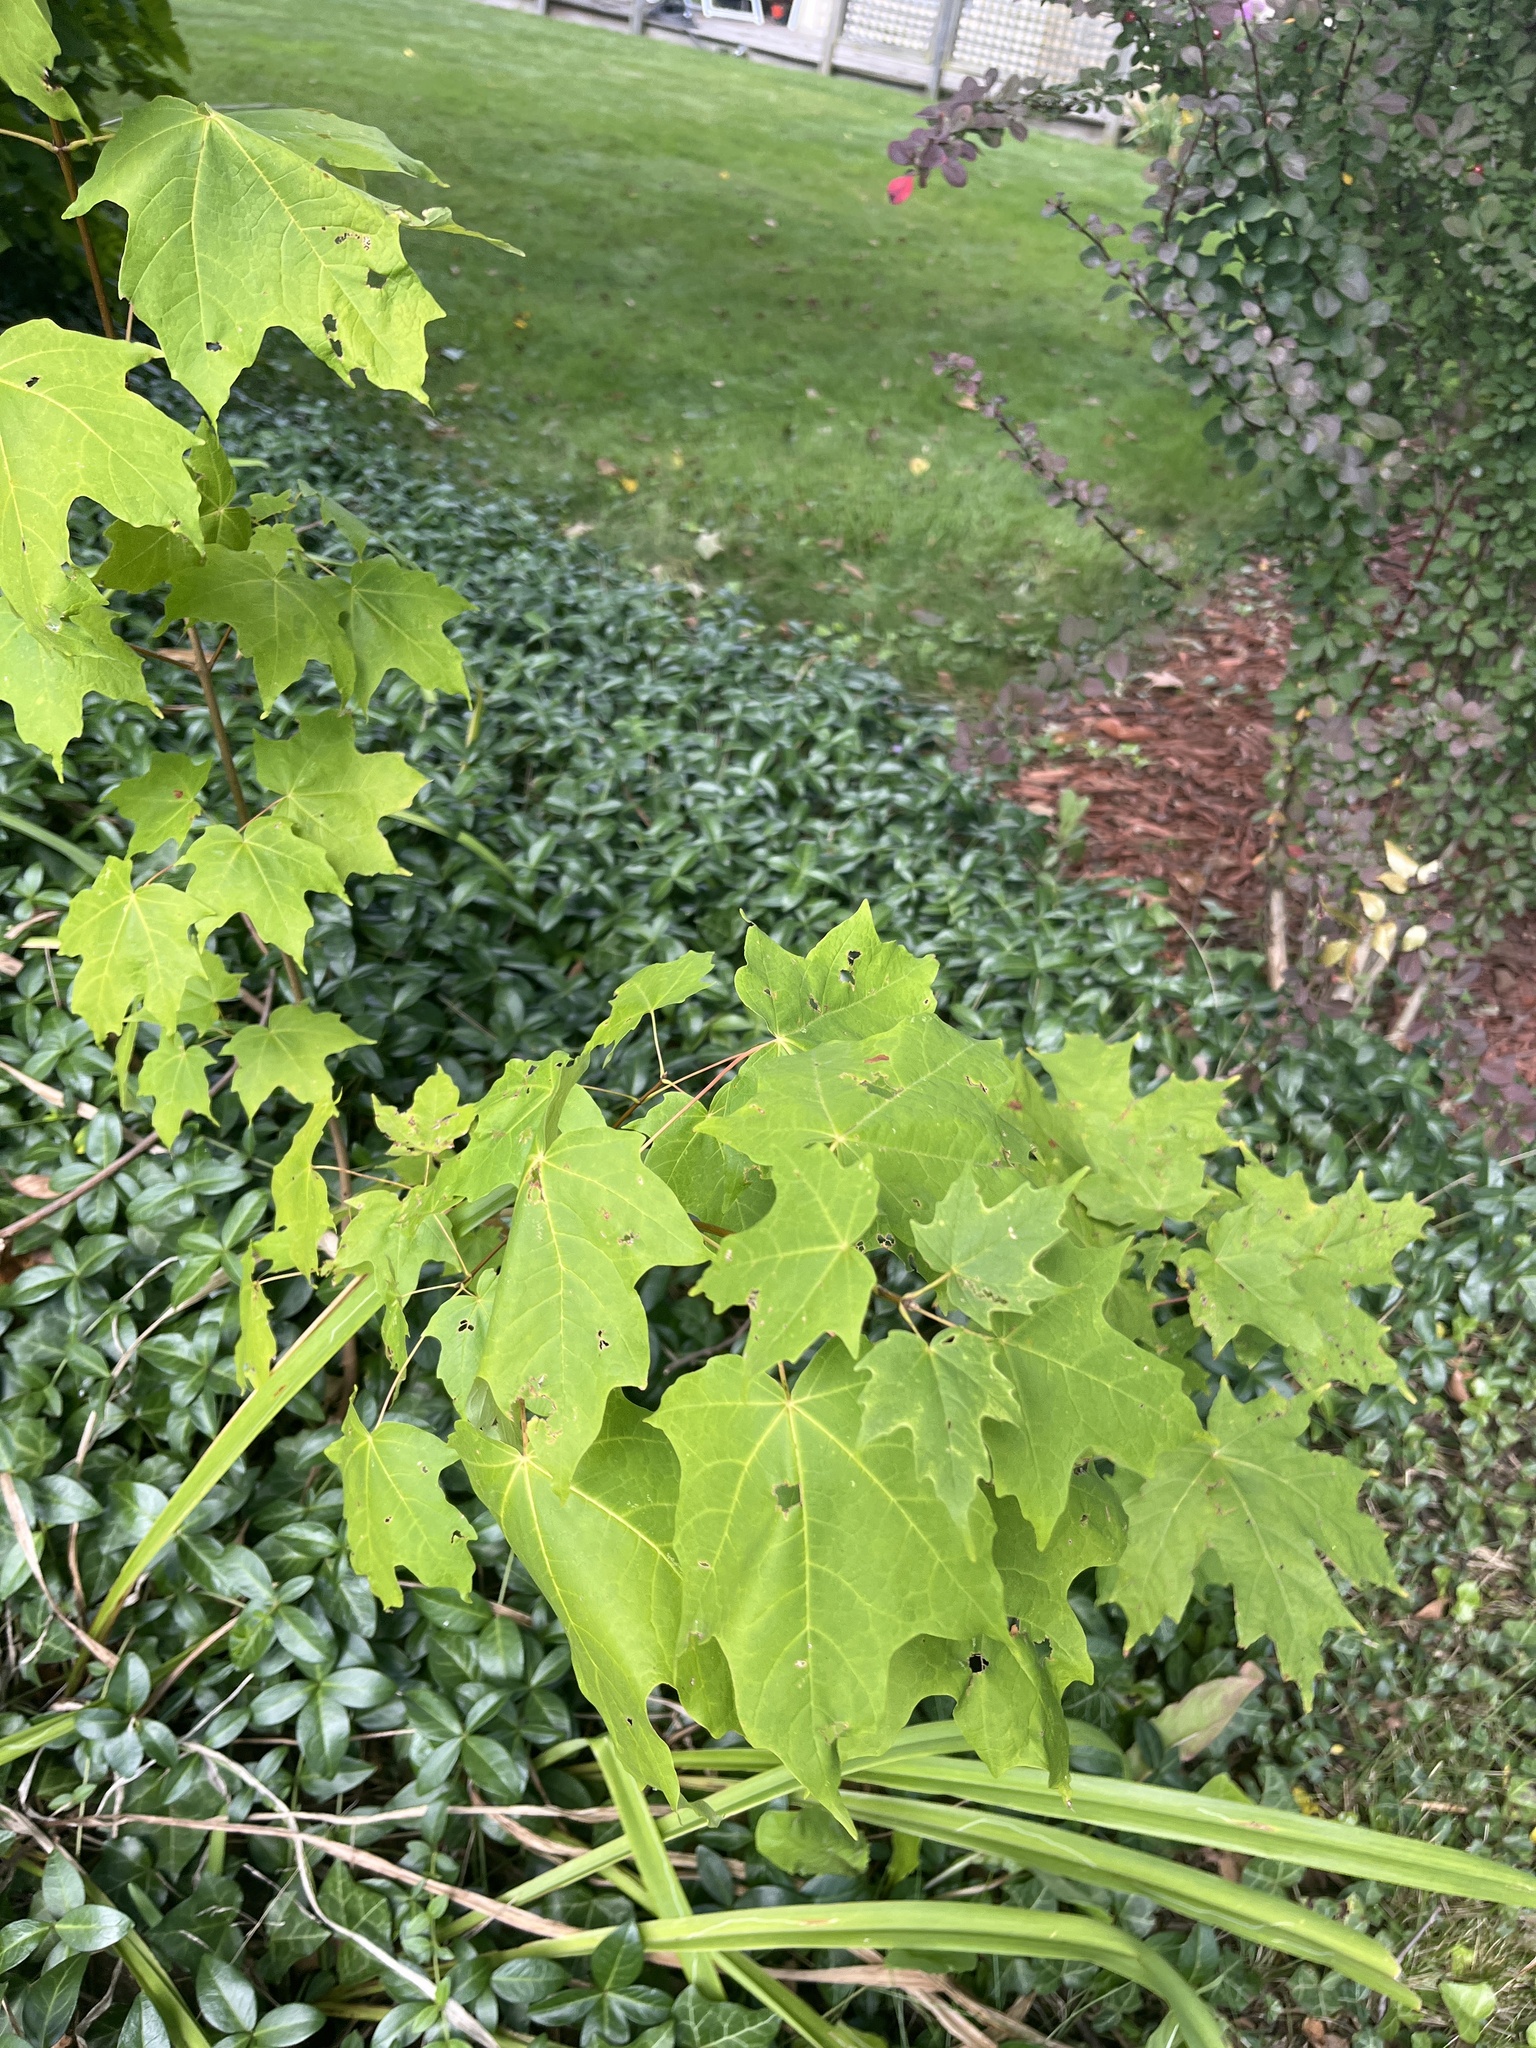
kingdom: Plantae
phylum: Tracheophyta
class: Magnoliopsida
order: Sapindales
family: Sapindaceae
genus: Acer
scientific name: Acer platanoides
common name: Norway maple
